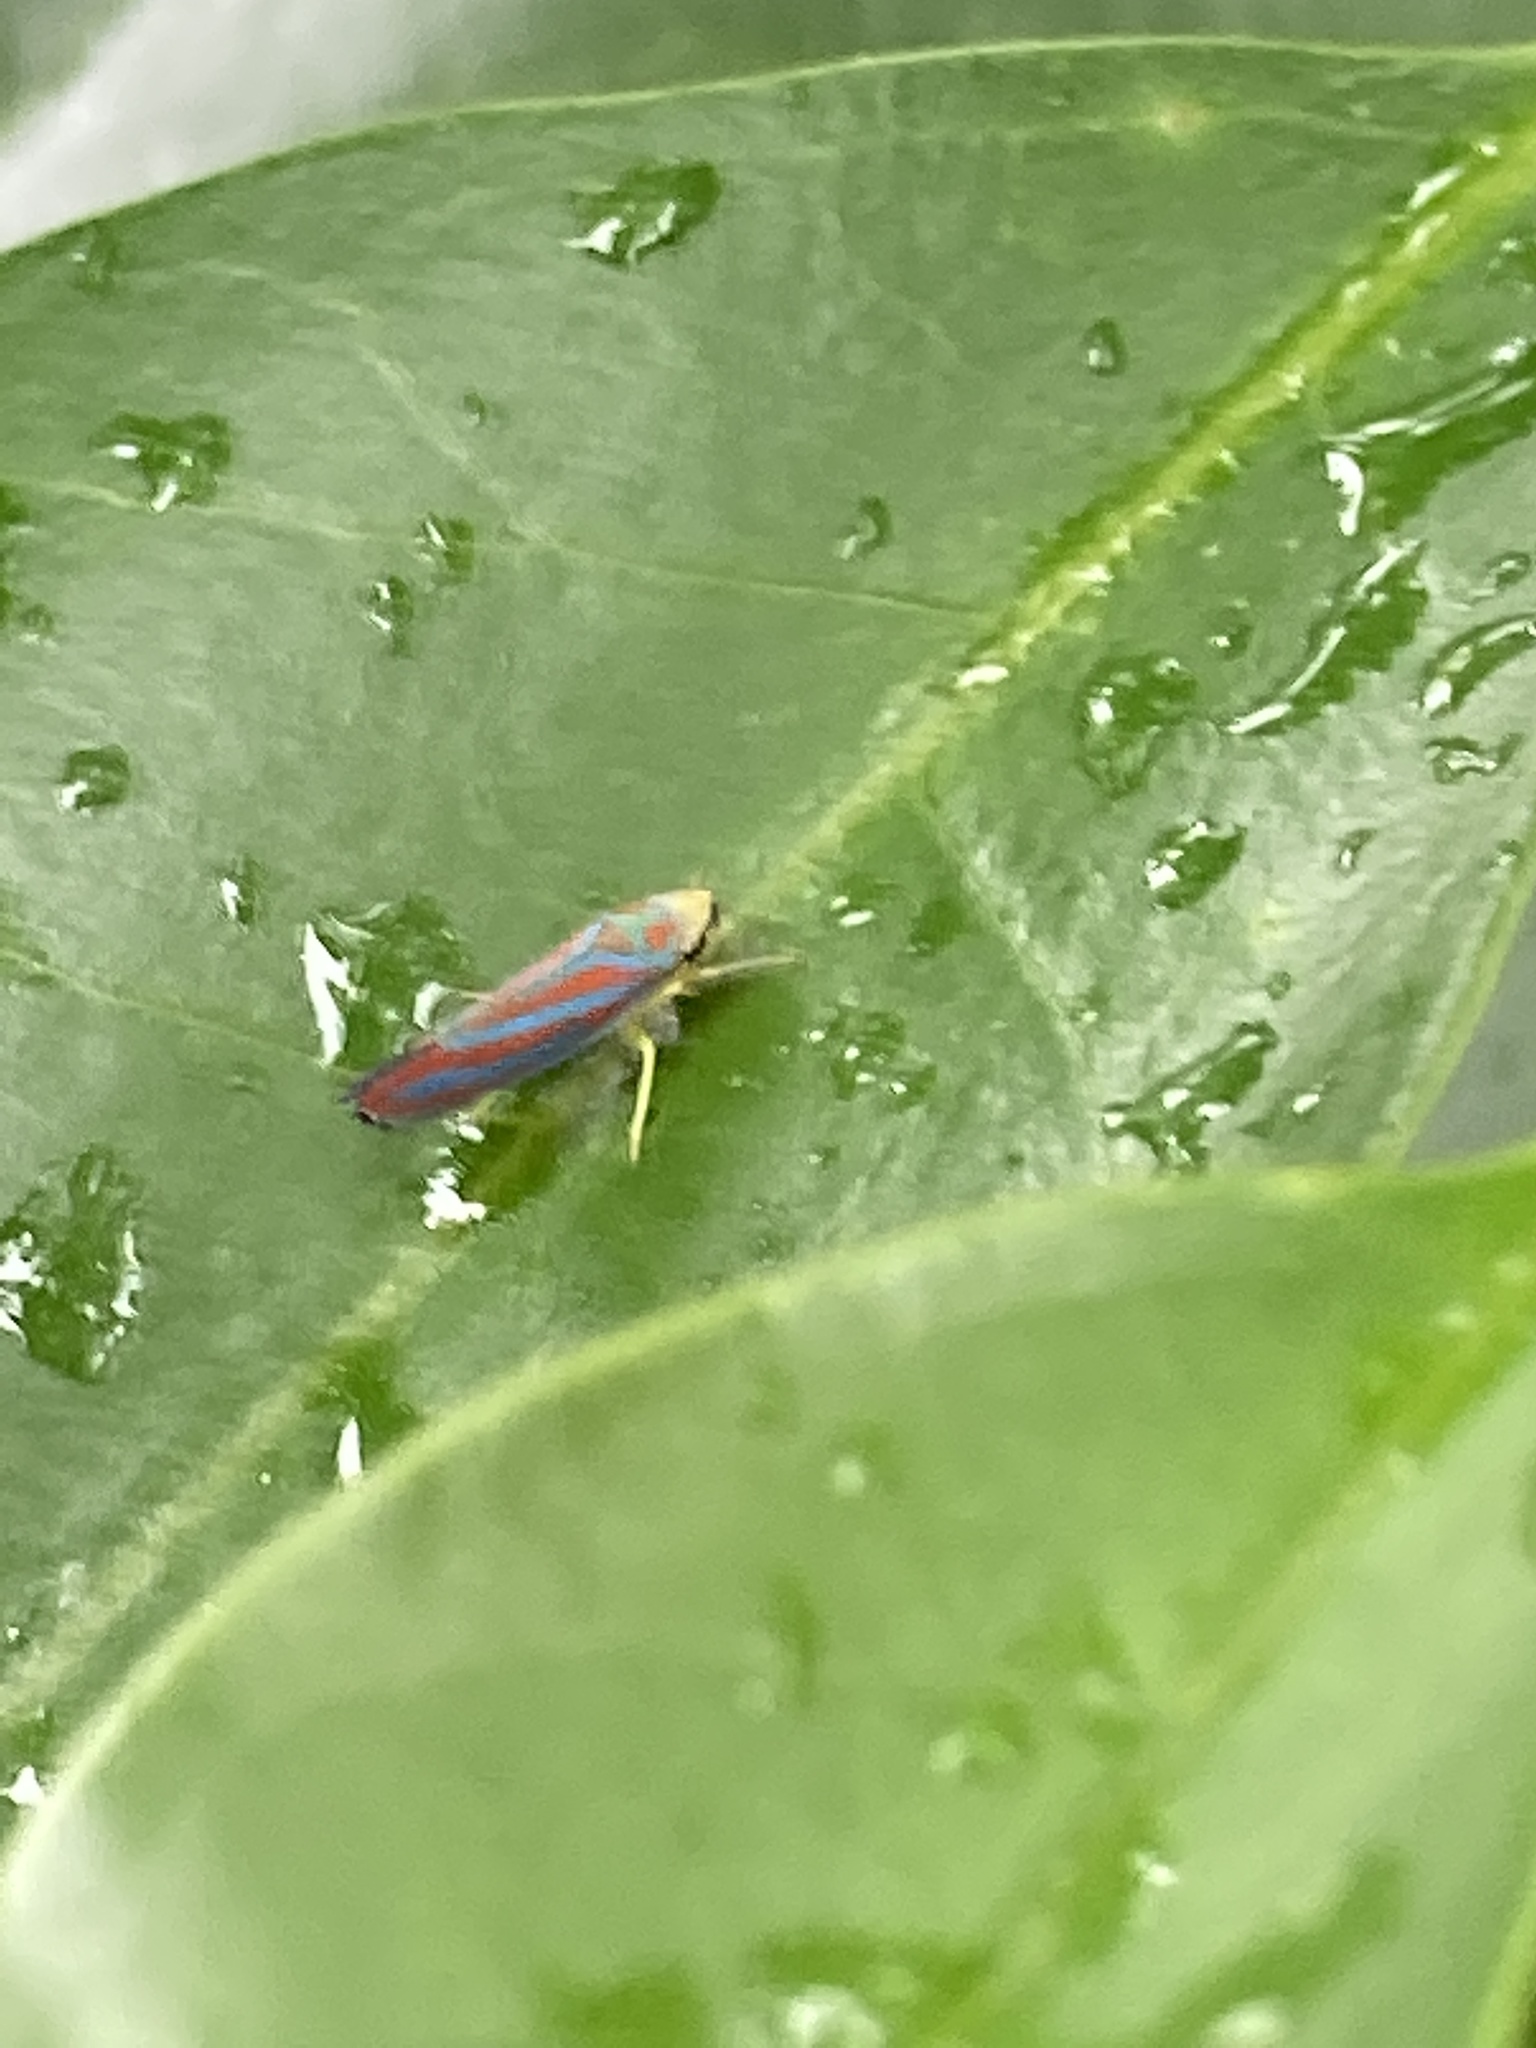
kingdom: Animalia
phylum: Arthropoda
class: Insecta
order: Hemiptera
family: Cicadellidae
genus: Graphocephala
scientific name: Graphocephala coccinea
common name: Candy-striped leafhopper
